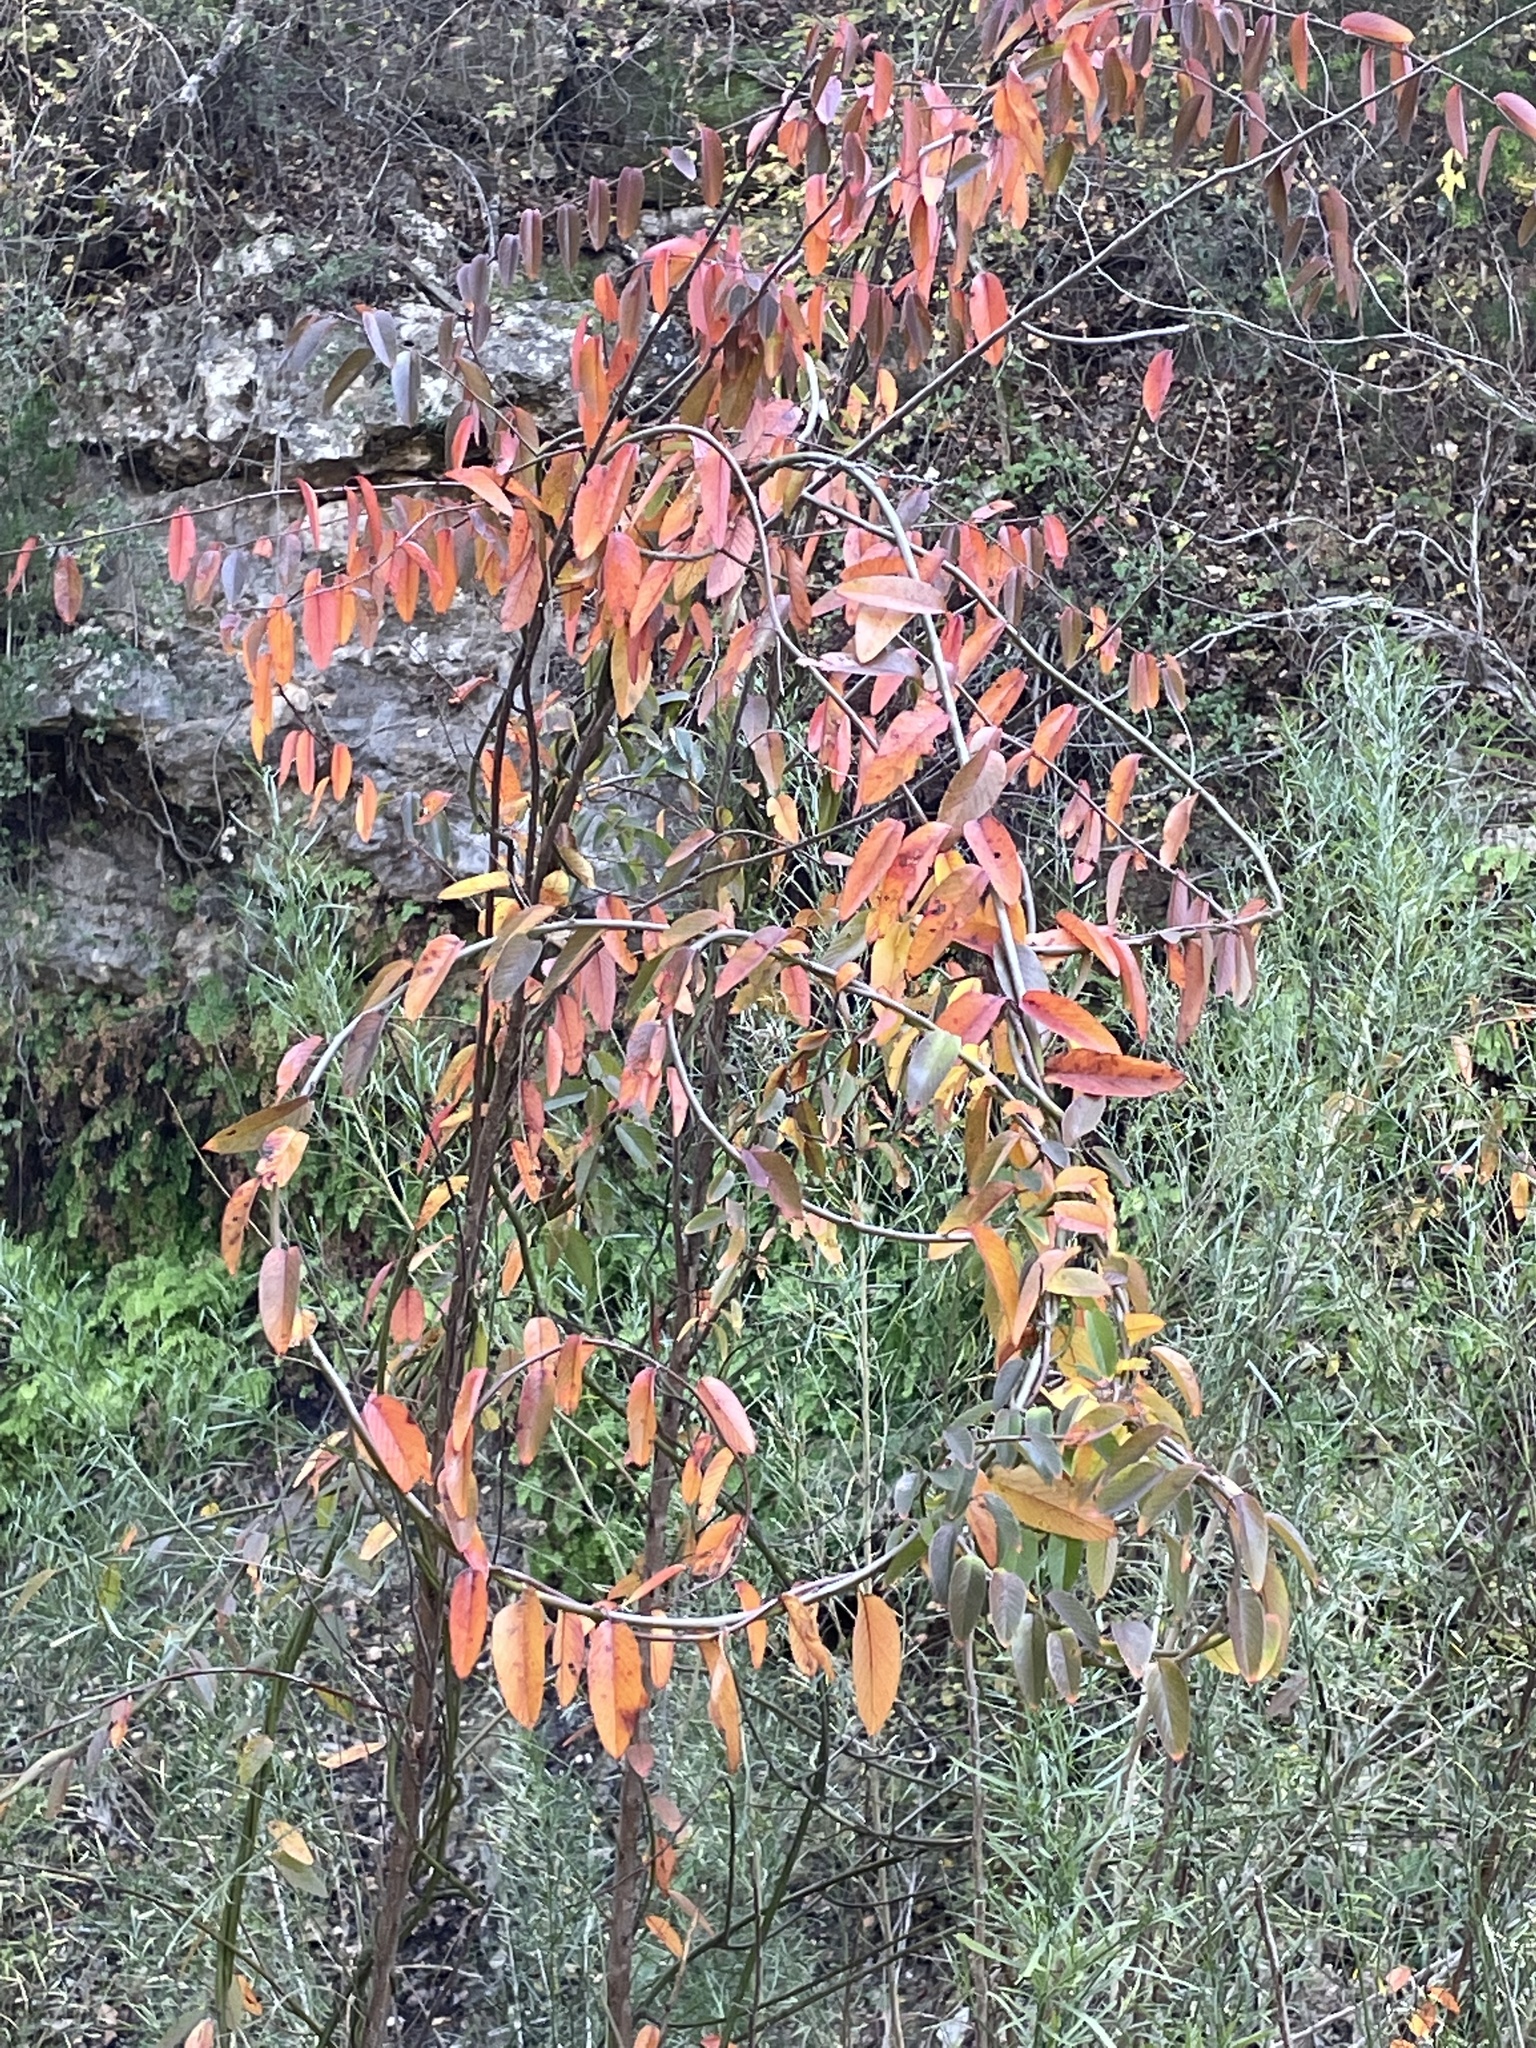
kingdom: Plantae
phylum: Tracheophyta
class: Magnoliopsida
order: Rosales
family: Rhamnaceae
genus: Berchemia
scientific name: Berchemia scandens
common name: Supplejack
